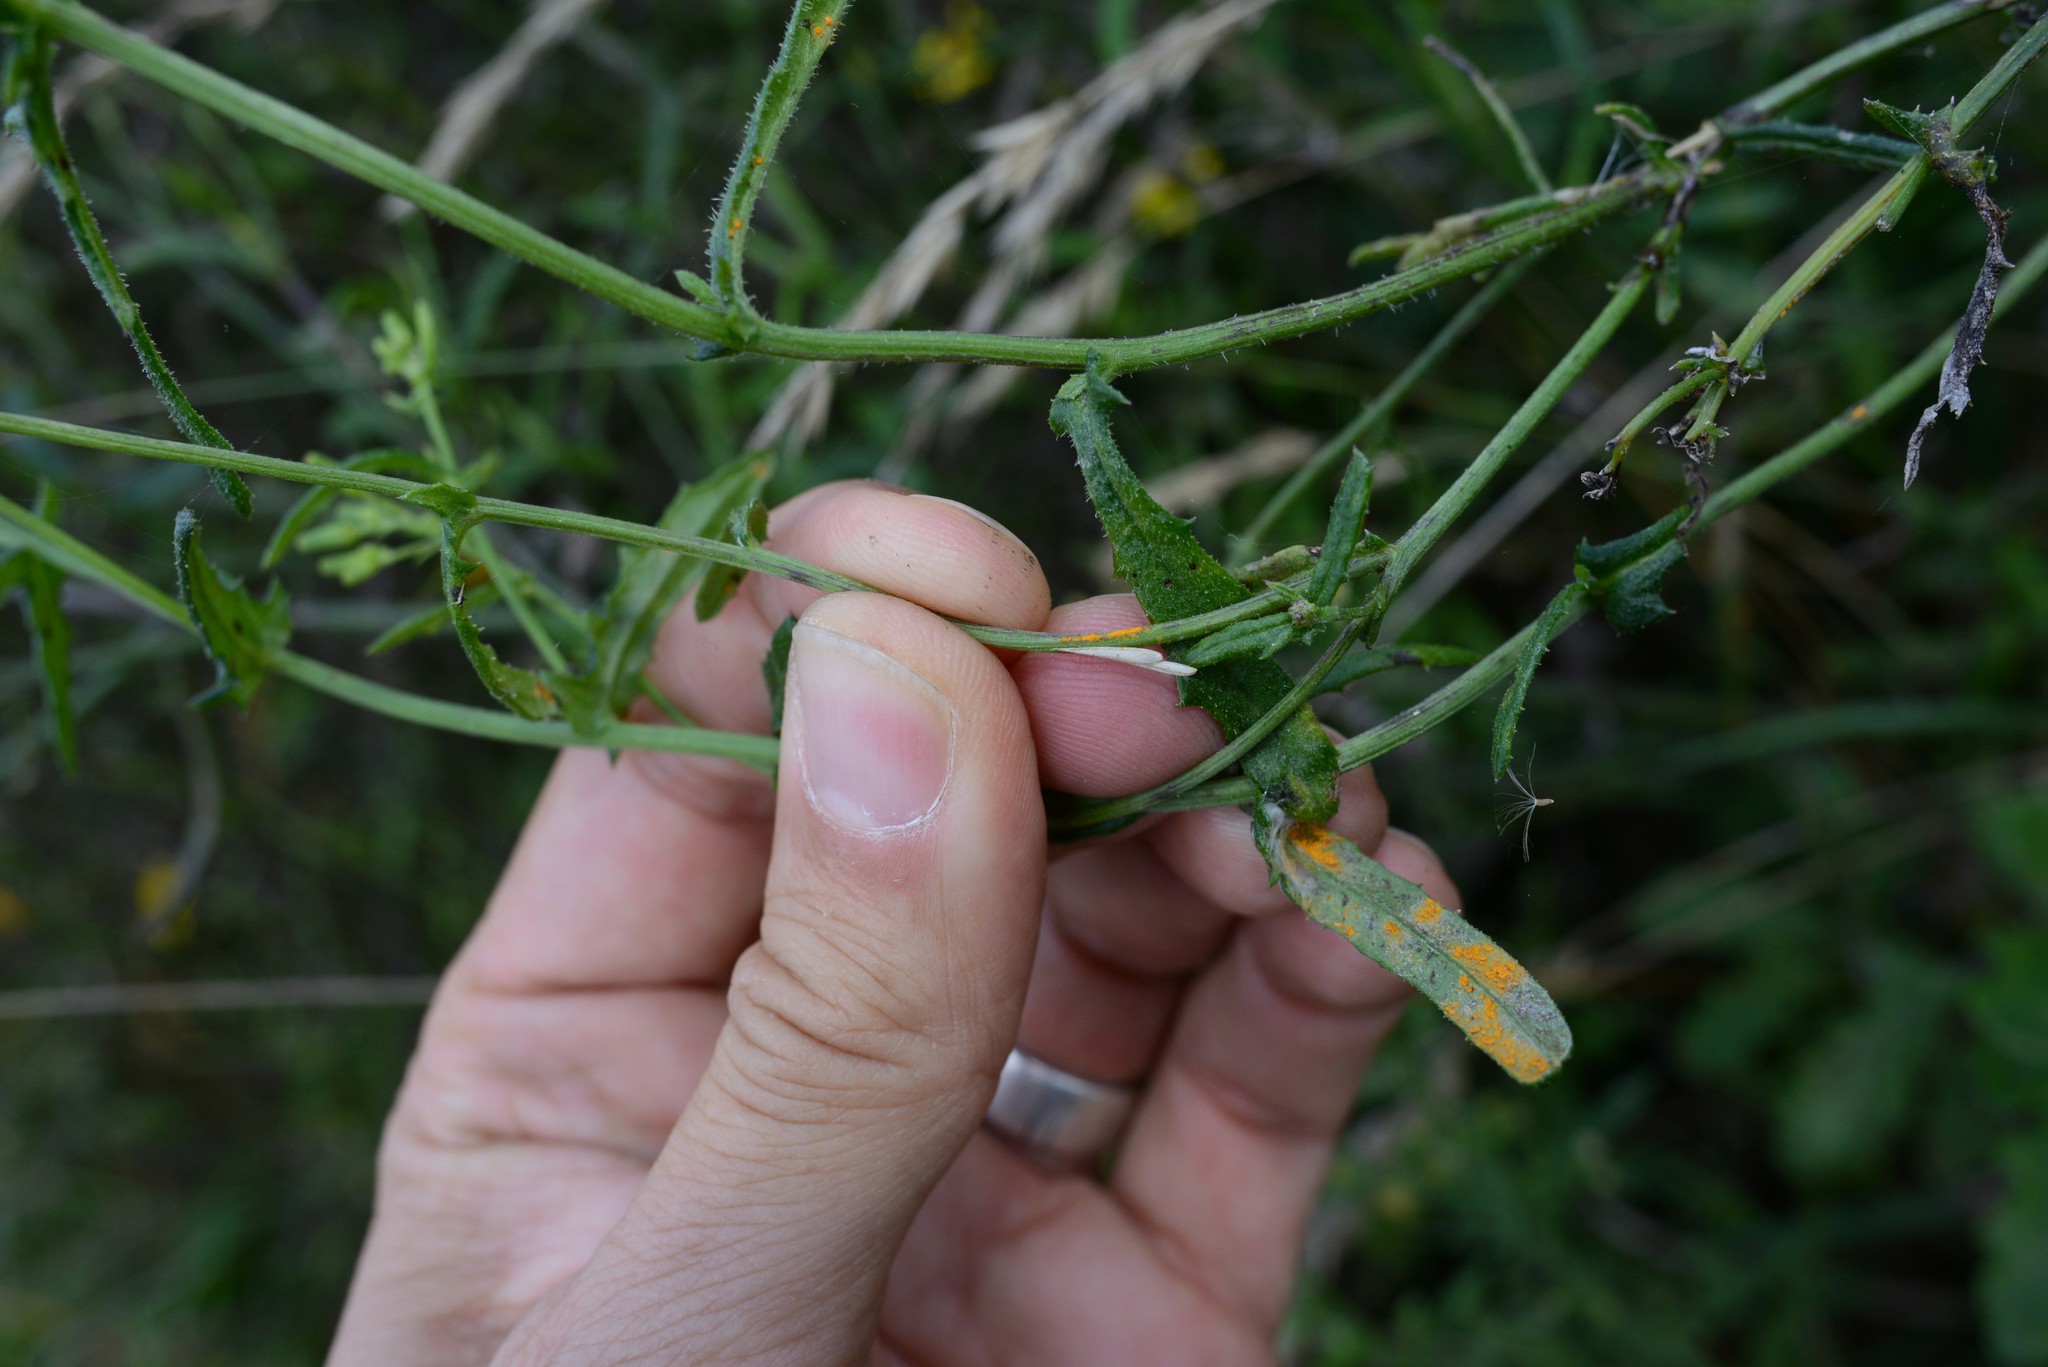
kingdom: Fungi
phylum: Basidiomycota
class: Pucciniomycetes
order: Pucciniales
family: Coleosporiaceae
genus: Coleosporium
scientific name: Coleosporium tussilaginis
